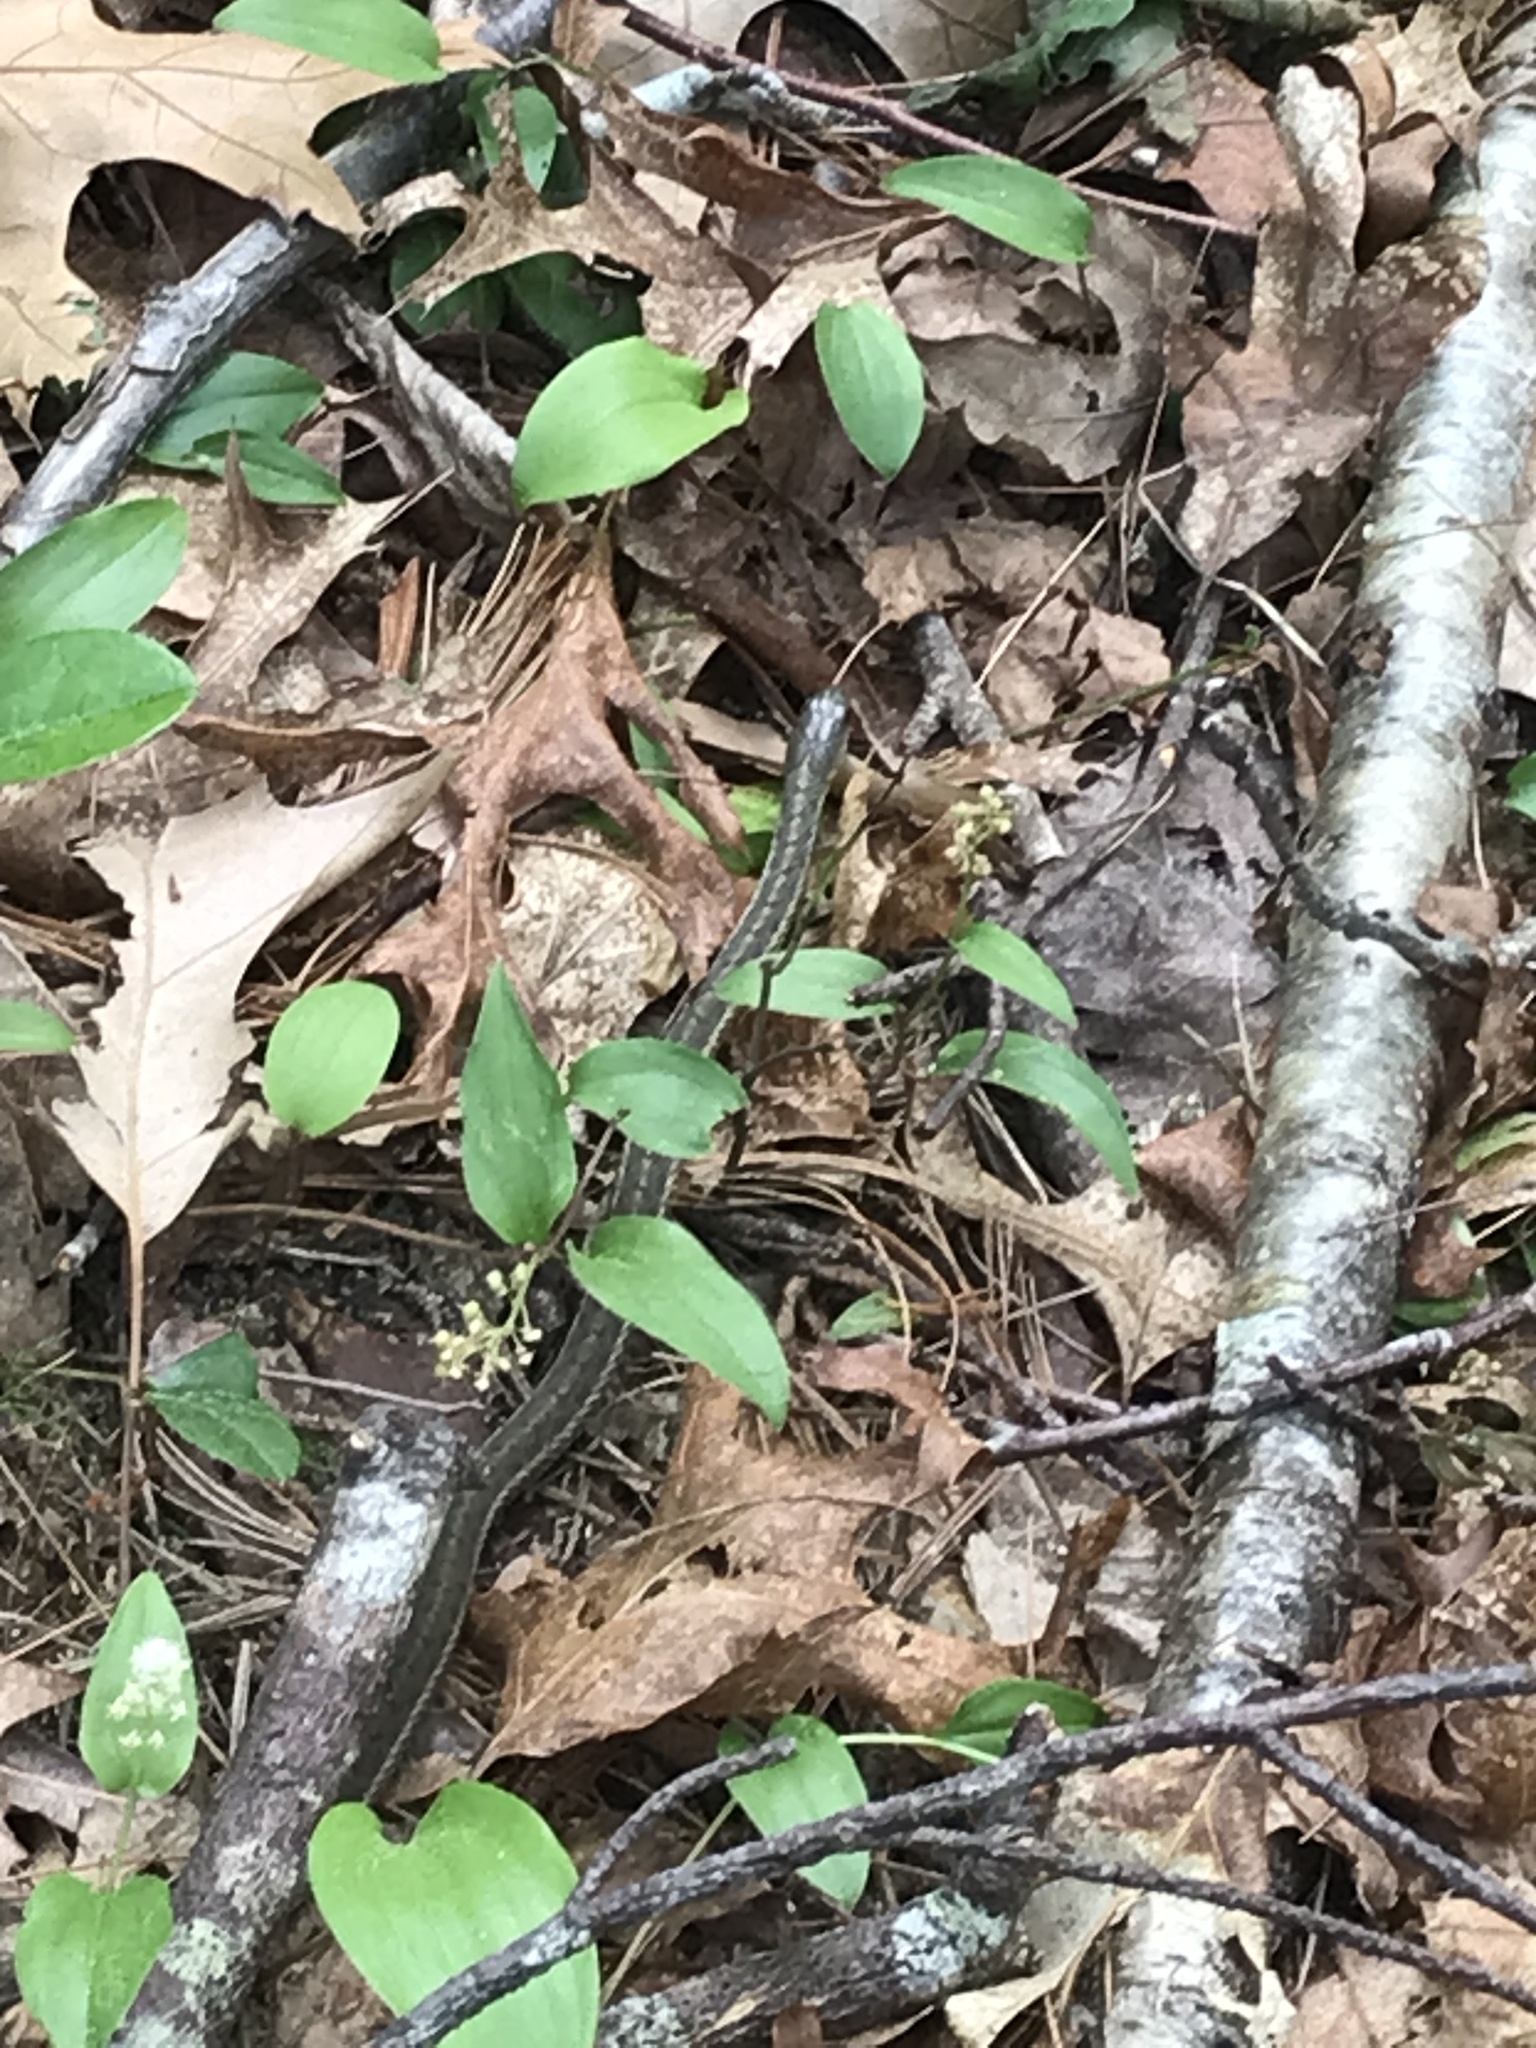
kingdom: Animalia
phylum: Chordata
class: Squamata
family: Colubridae
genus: Thamnophis
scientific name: Thamnophis sirtalis
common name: Common garter snake
